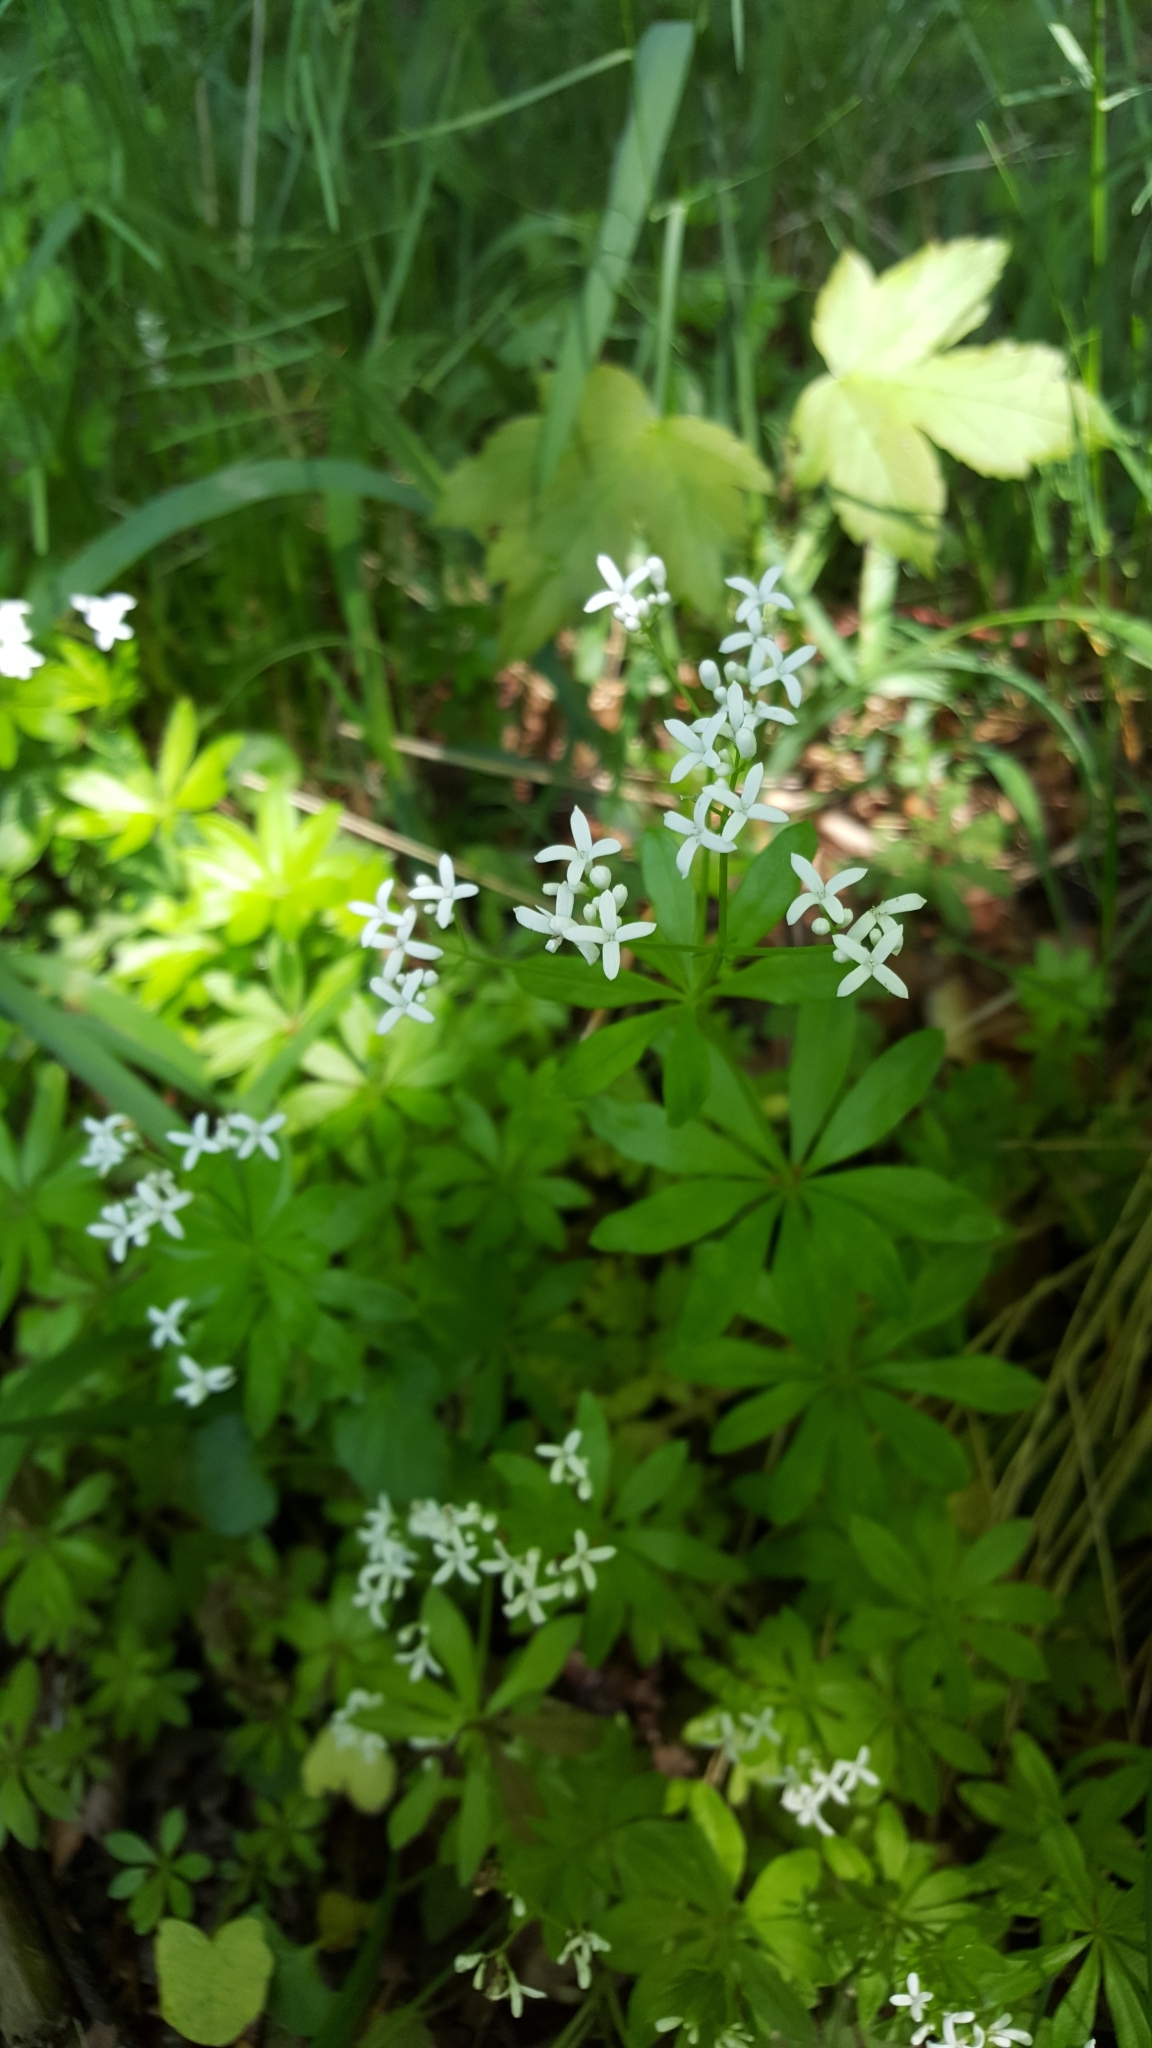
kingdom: Plantae
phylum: Tracheophyta
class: Magnoliopsida
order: Gentianales
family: Rubiaceae
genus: Galium
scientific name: Galium odoratum
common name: Sweet woodruff
